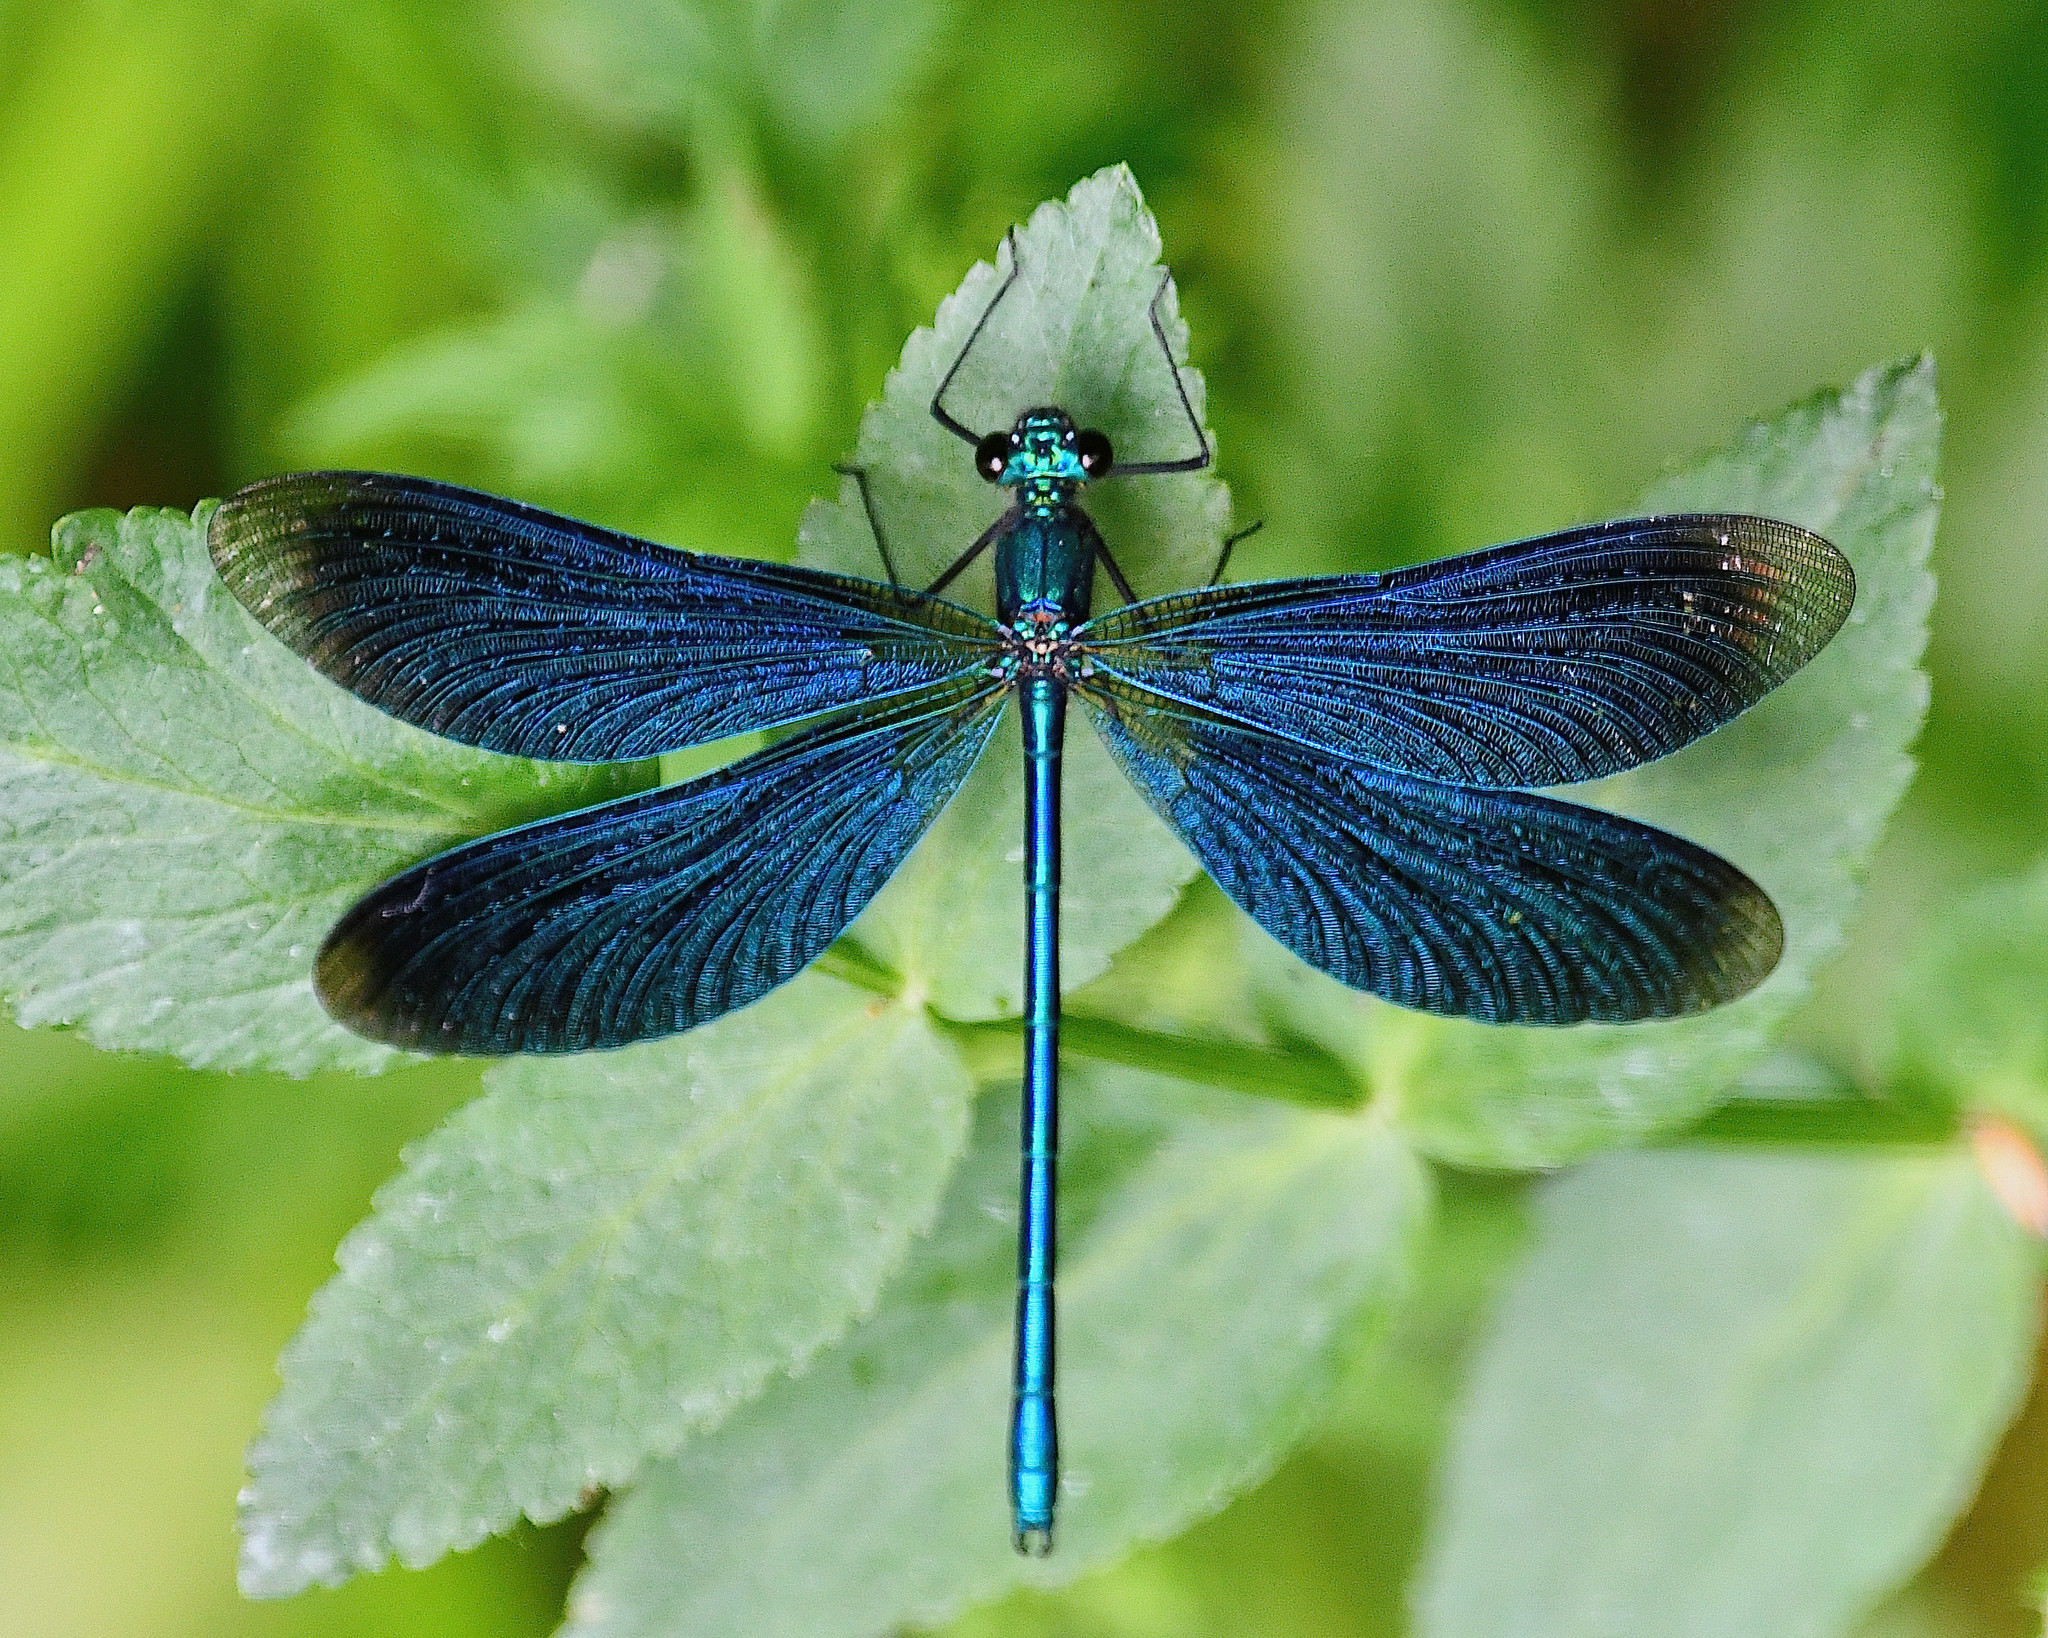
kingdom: Animalia
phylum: Arthropoda
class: Insecta
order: Odonata
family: Calopterygidae
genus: Calopteryx
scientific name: Calopteryx virgo
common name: Beautiful demoiselle
